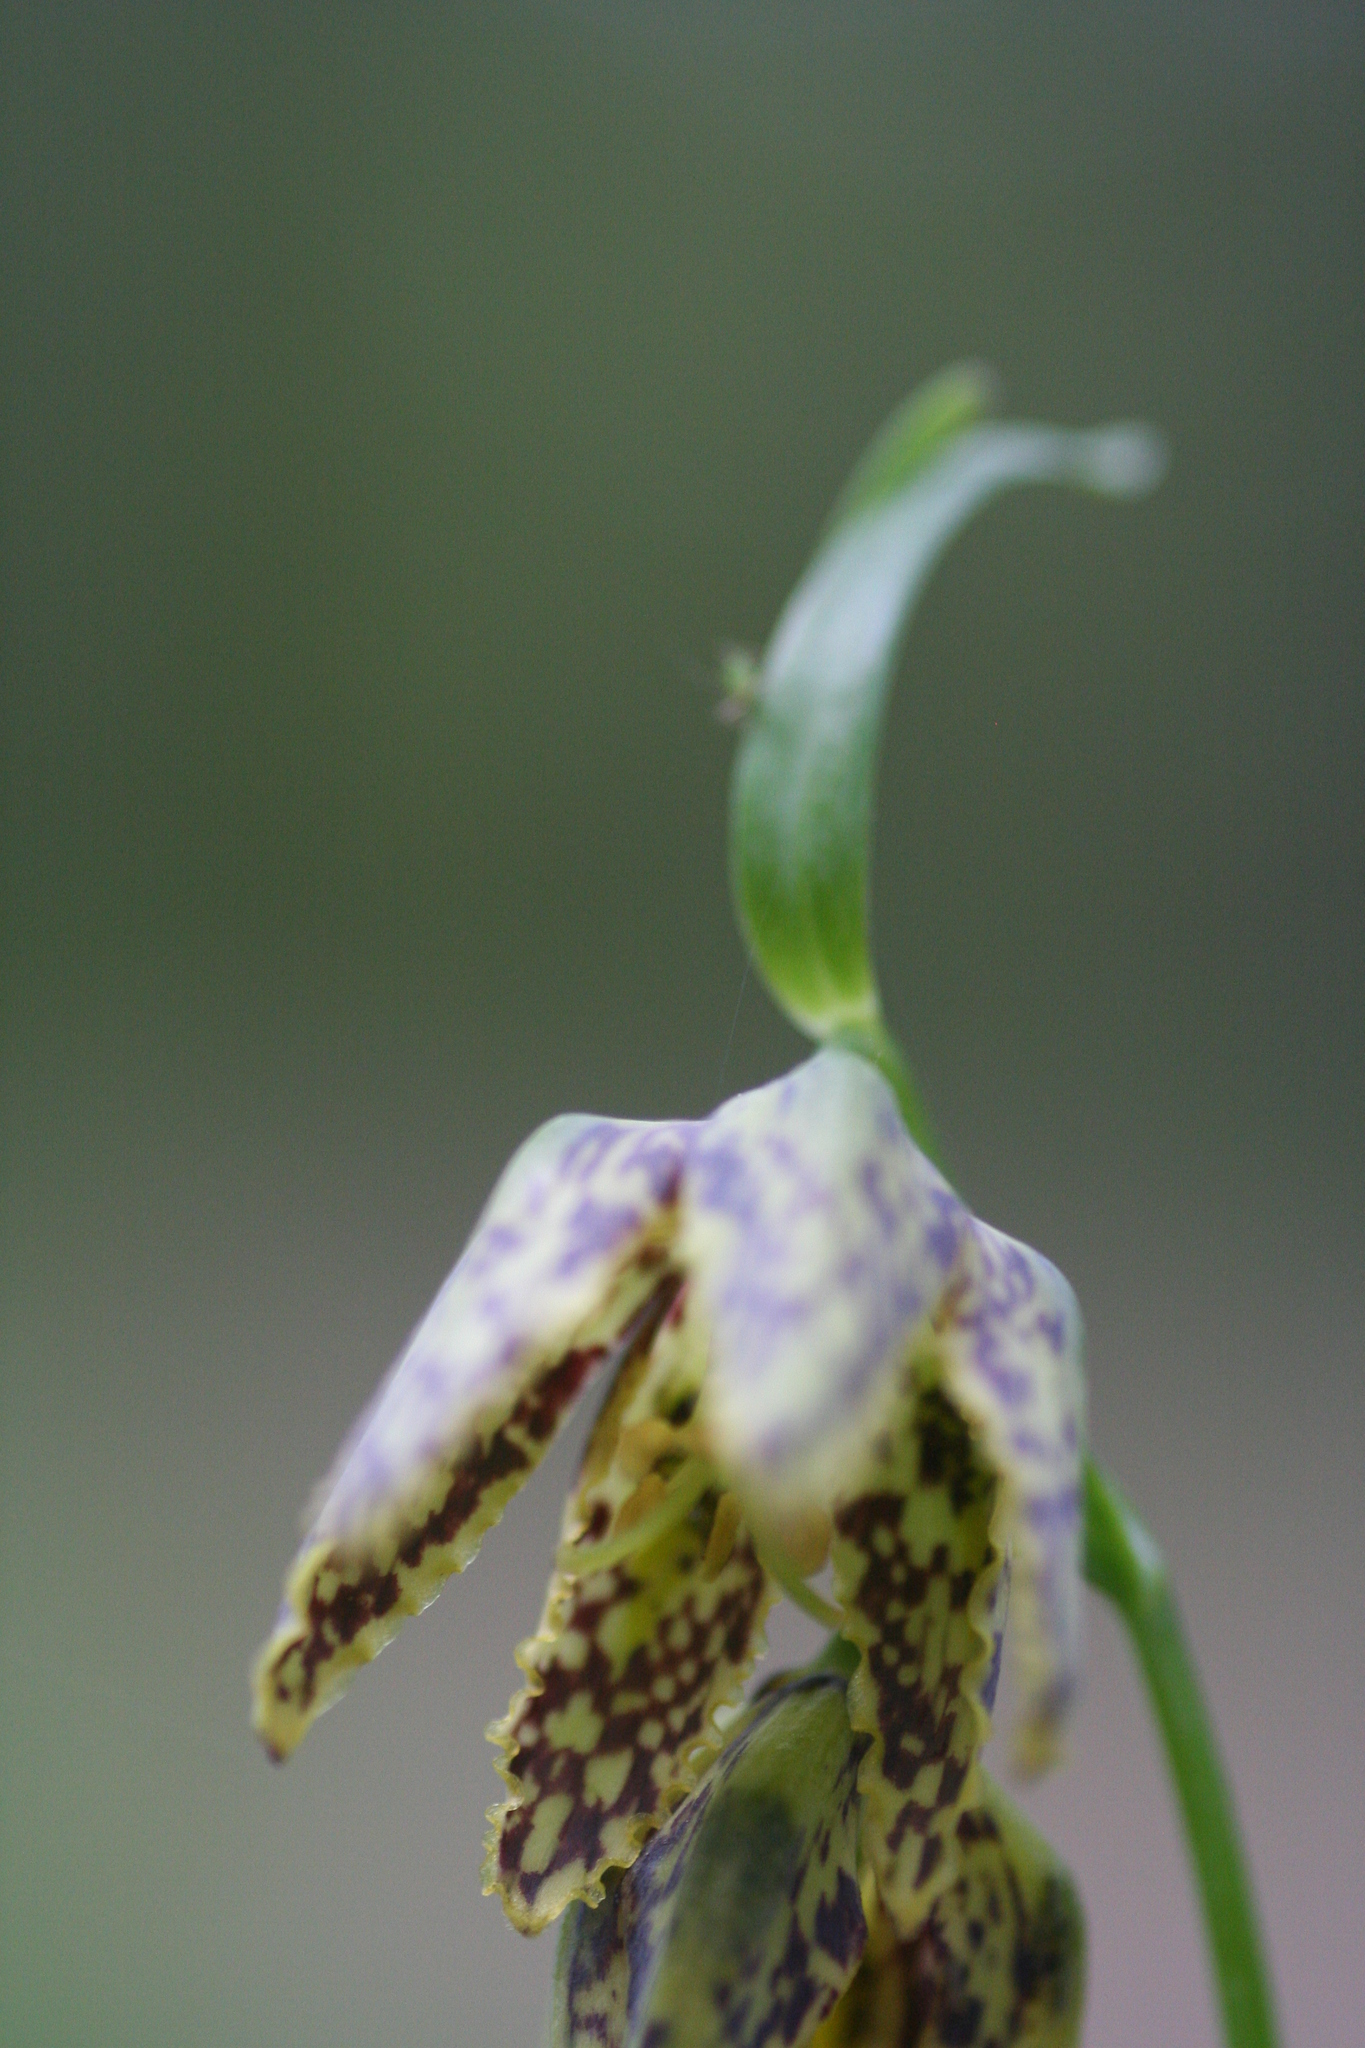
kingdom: Plantae
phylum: Tracheophyta
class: Liliopsida
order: Liliales
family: Liliaceae
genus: Fritillaria
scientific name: Fritillaria affinis
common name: Ojai fritillary
